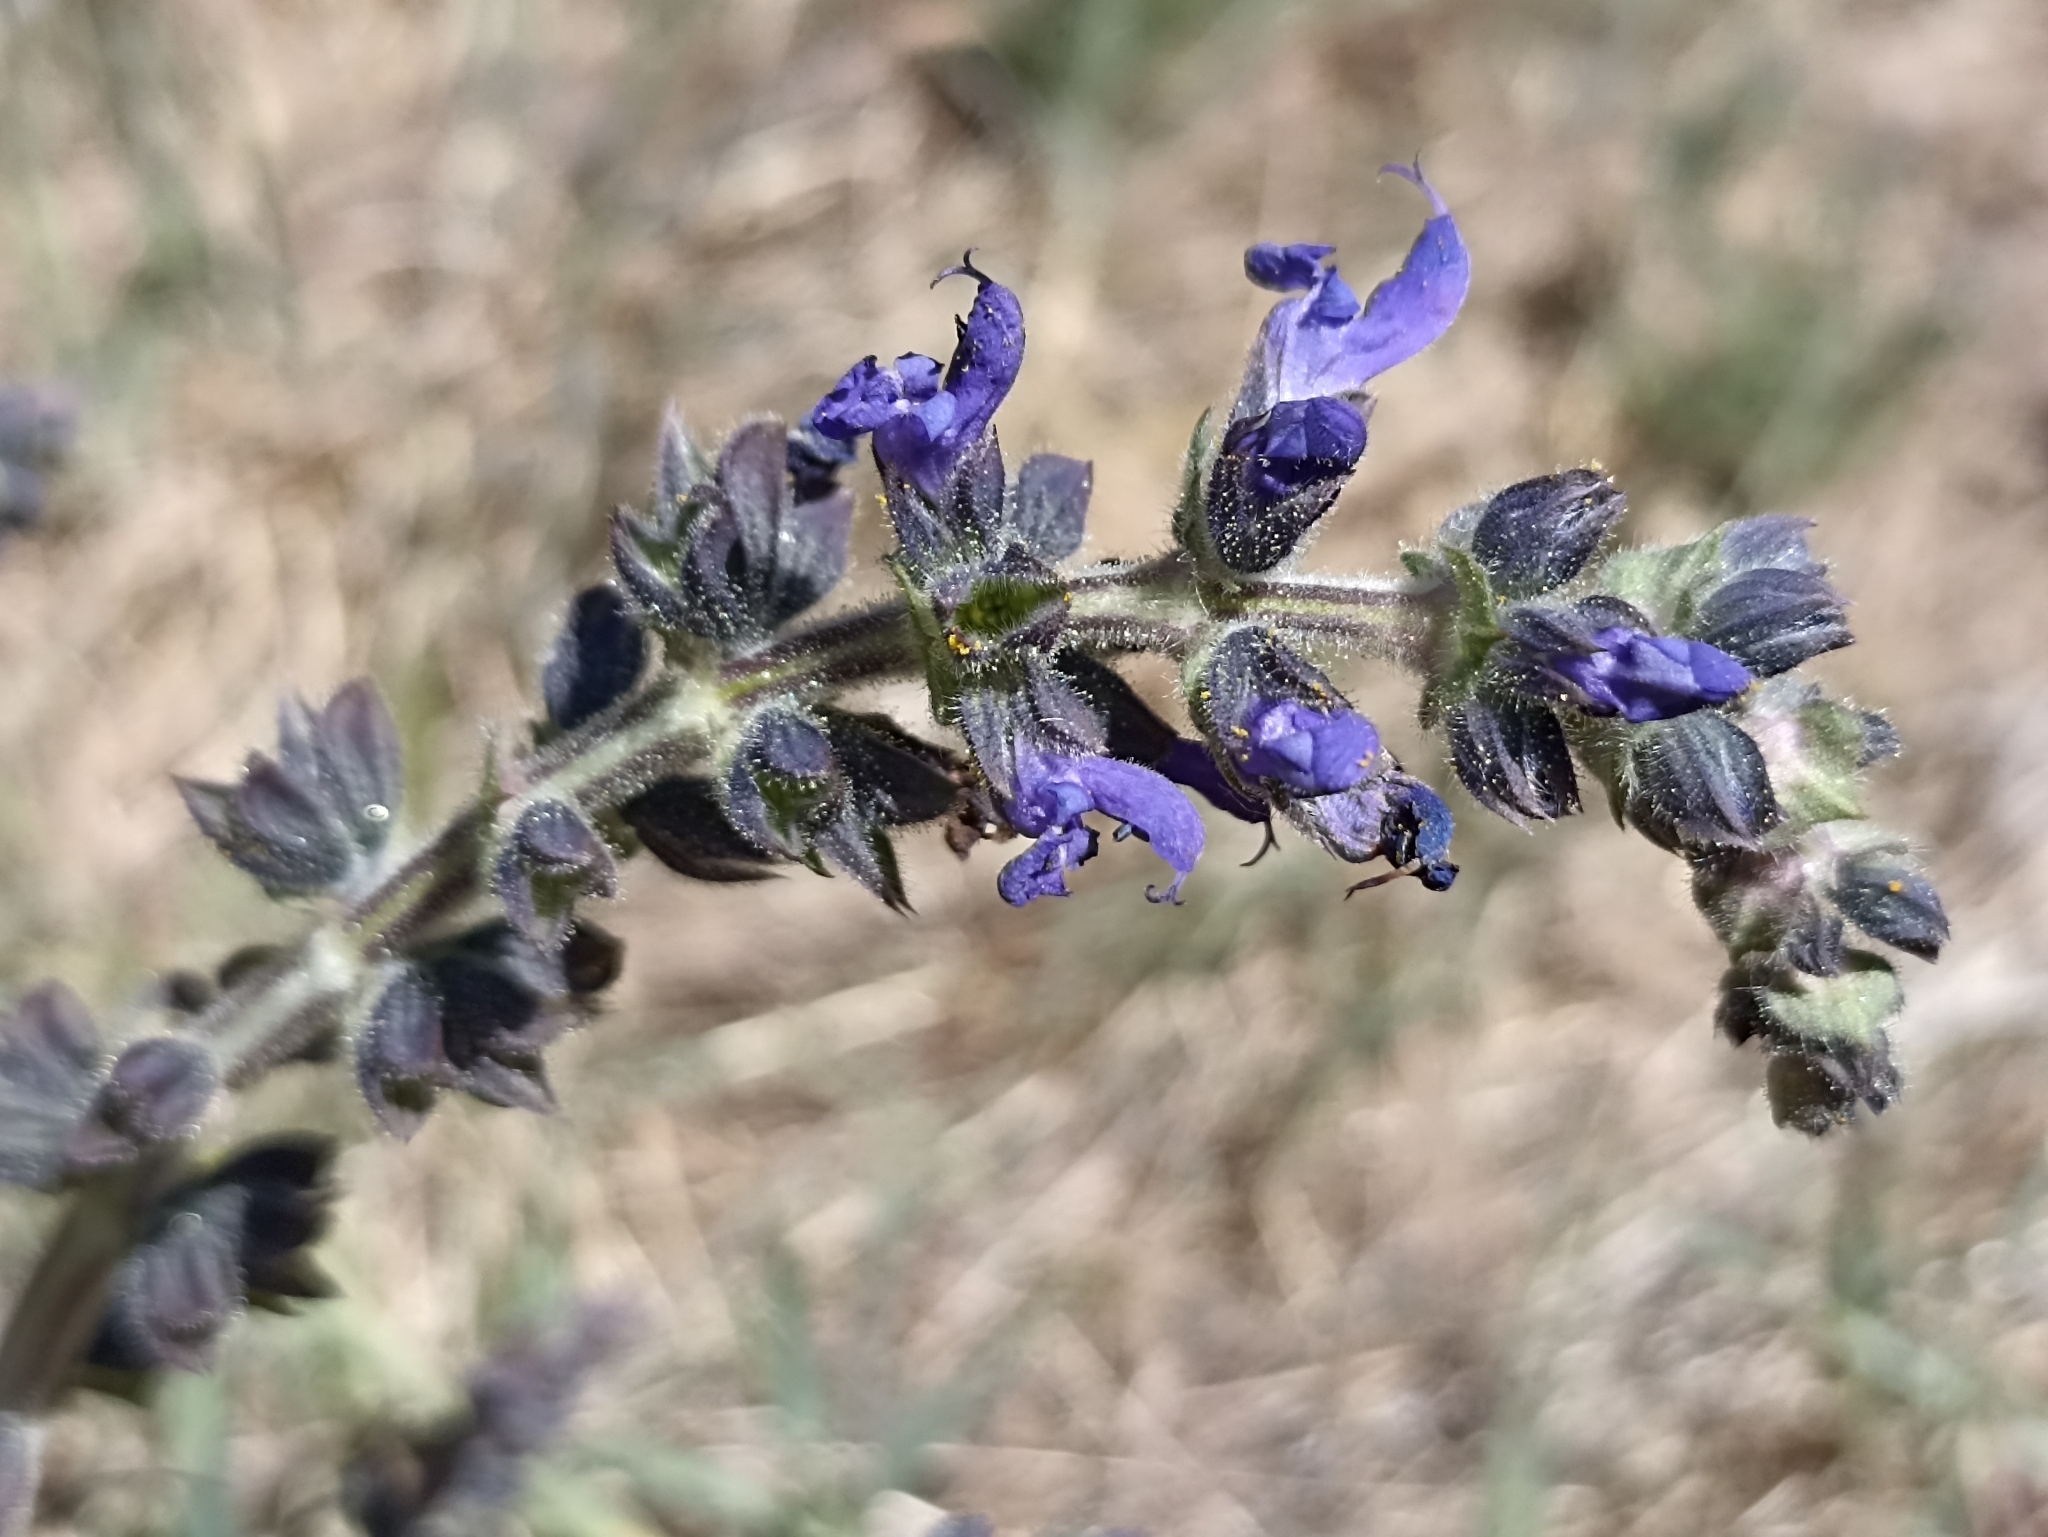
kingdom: Plantae
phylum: Tracheophyta
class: Magnoliopsida
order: Lamiales
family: Lamiaceae
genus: Salvia
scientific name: Salvia verbenaca
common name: Wild clary
